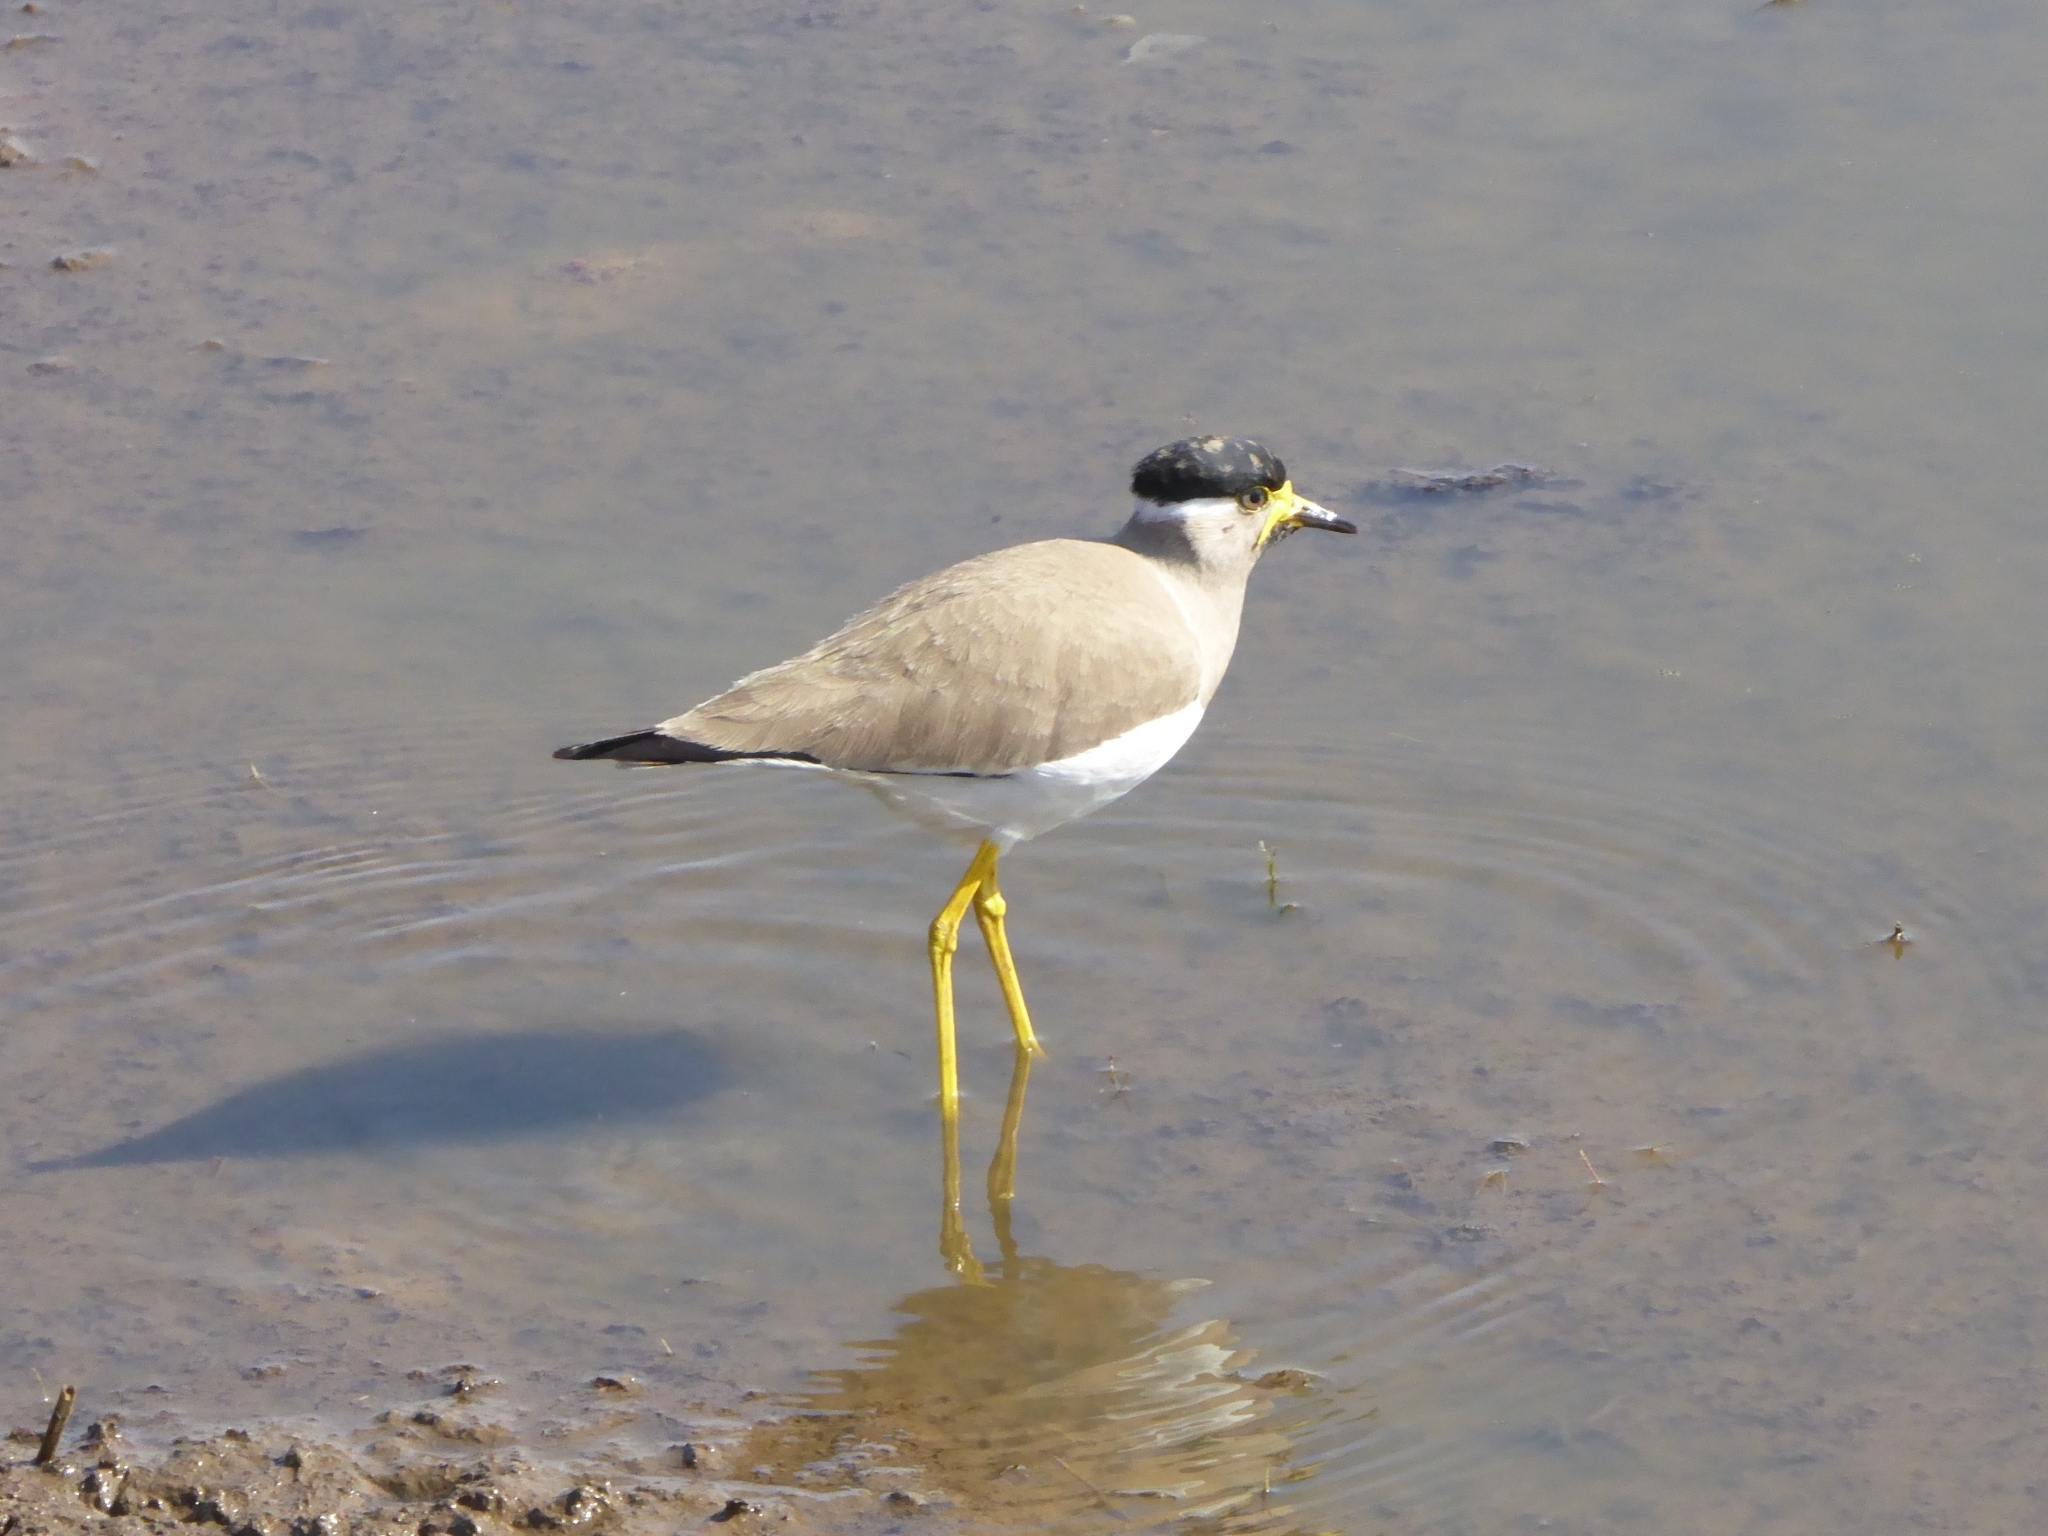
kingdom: Animalia
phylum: Chordata
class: Aves
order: Charadriiformes
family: Charadriidae
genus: Vanellus
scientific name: Vanellus malabaricus
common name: Yellow-wattled lapwing
